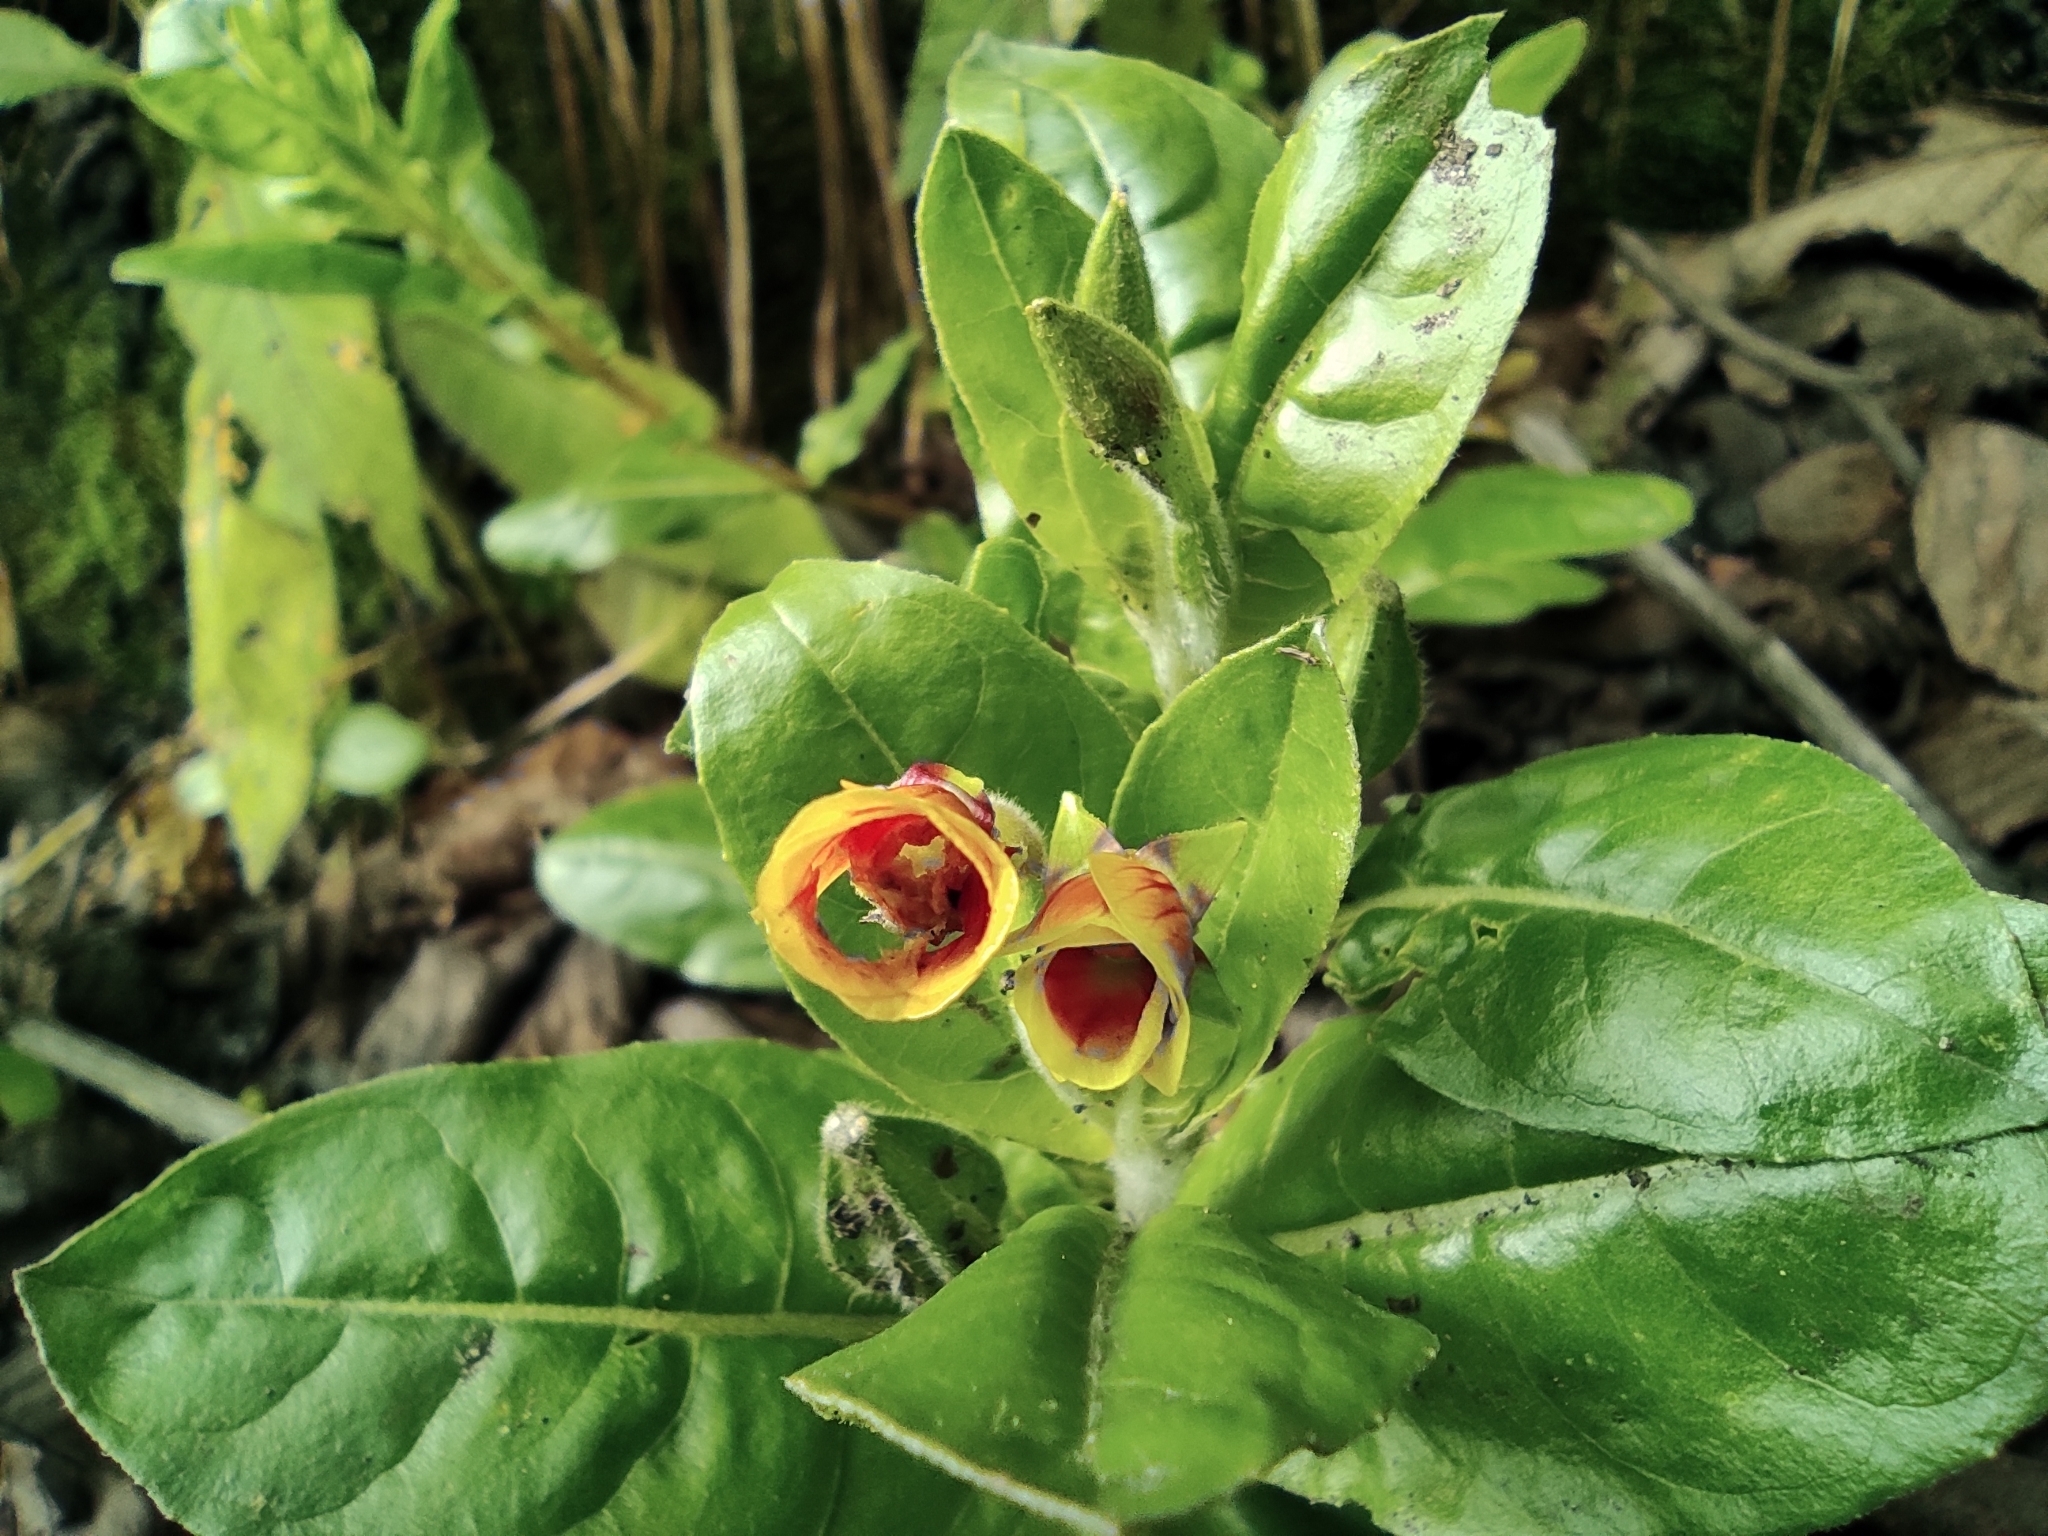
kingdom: Plantae
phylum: Tracheophyta
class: Magnoliopsida
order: Myrtales
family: Onagraceae
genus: Oenothera
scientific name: Oenothera epilobiifolia
